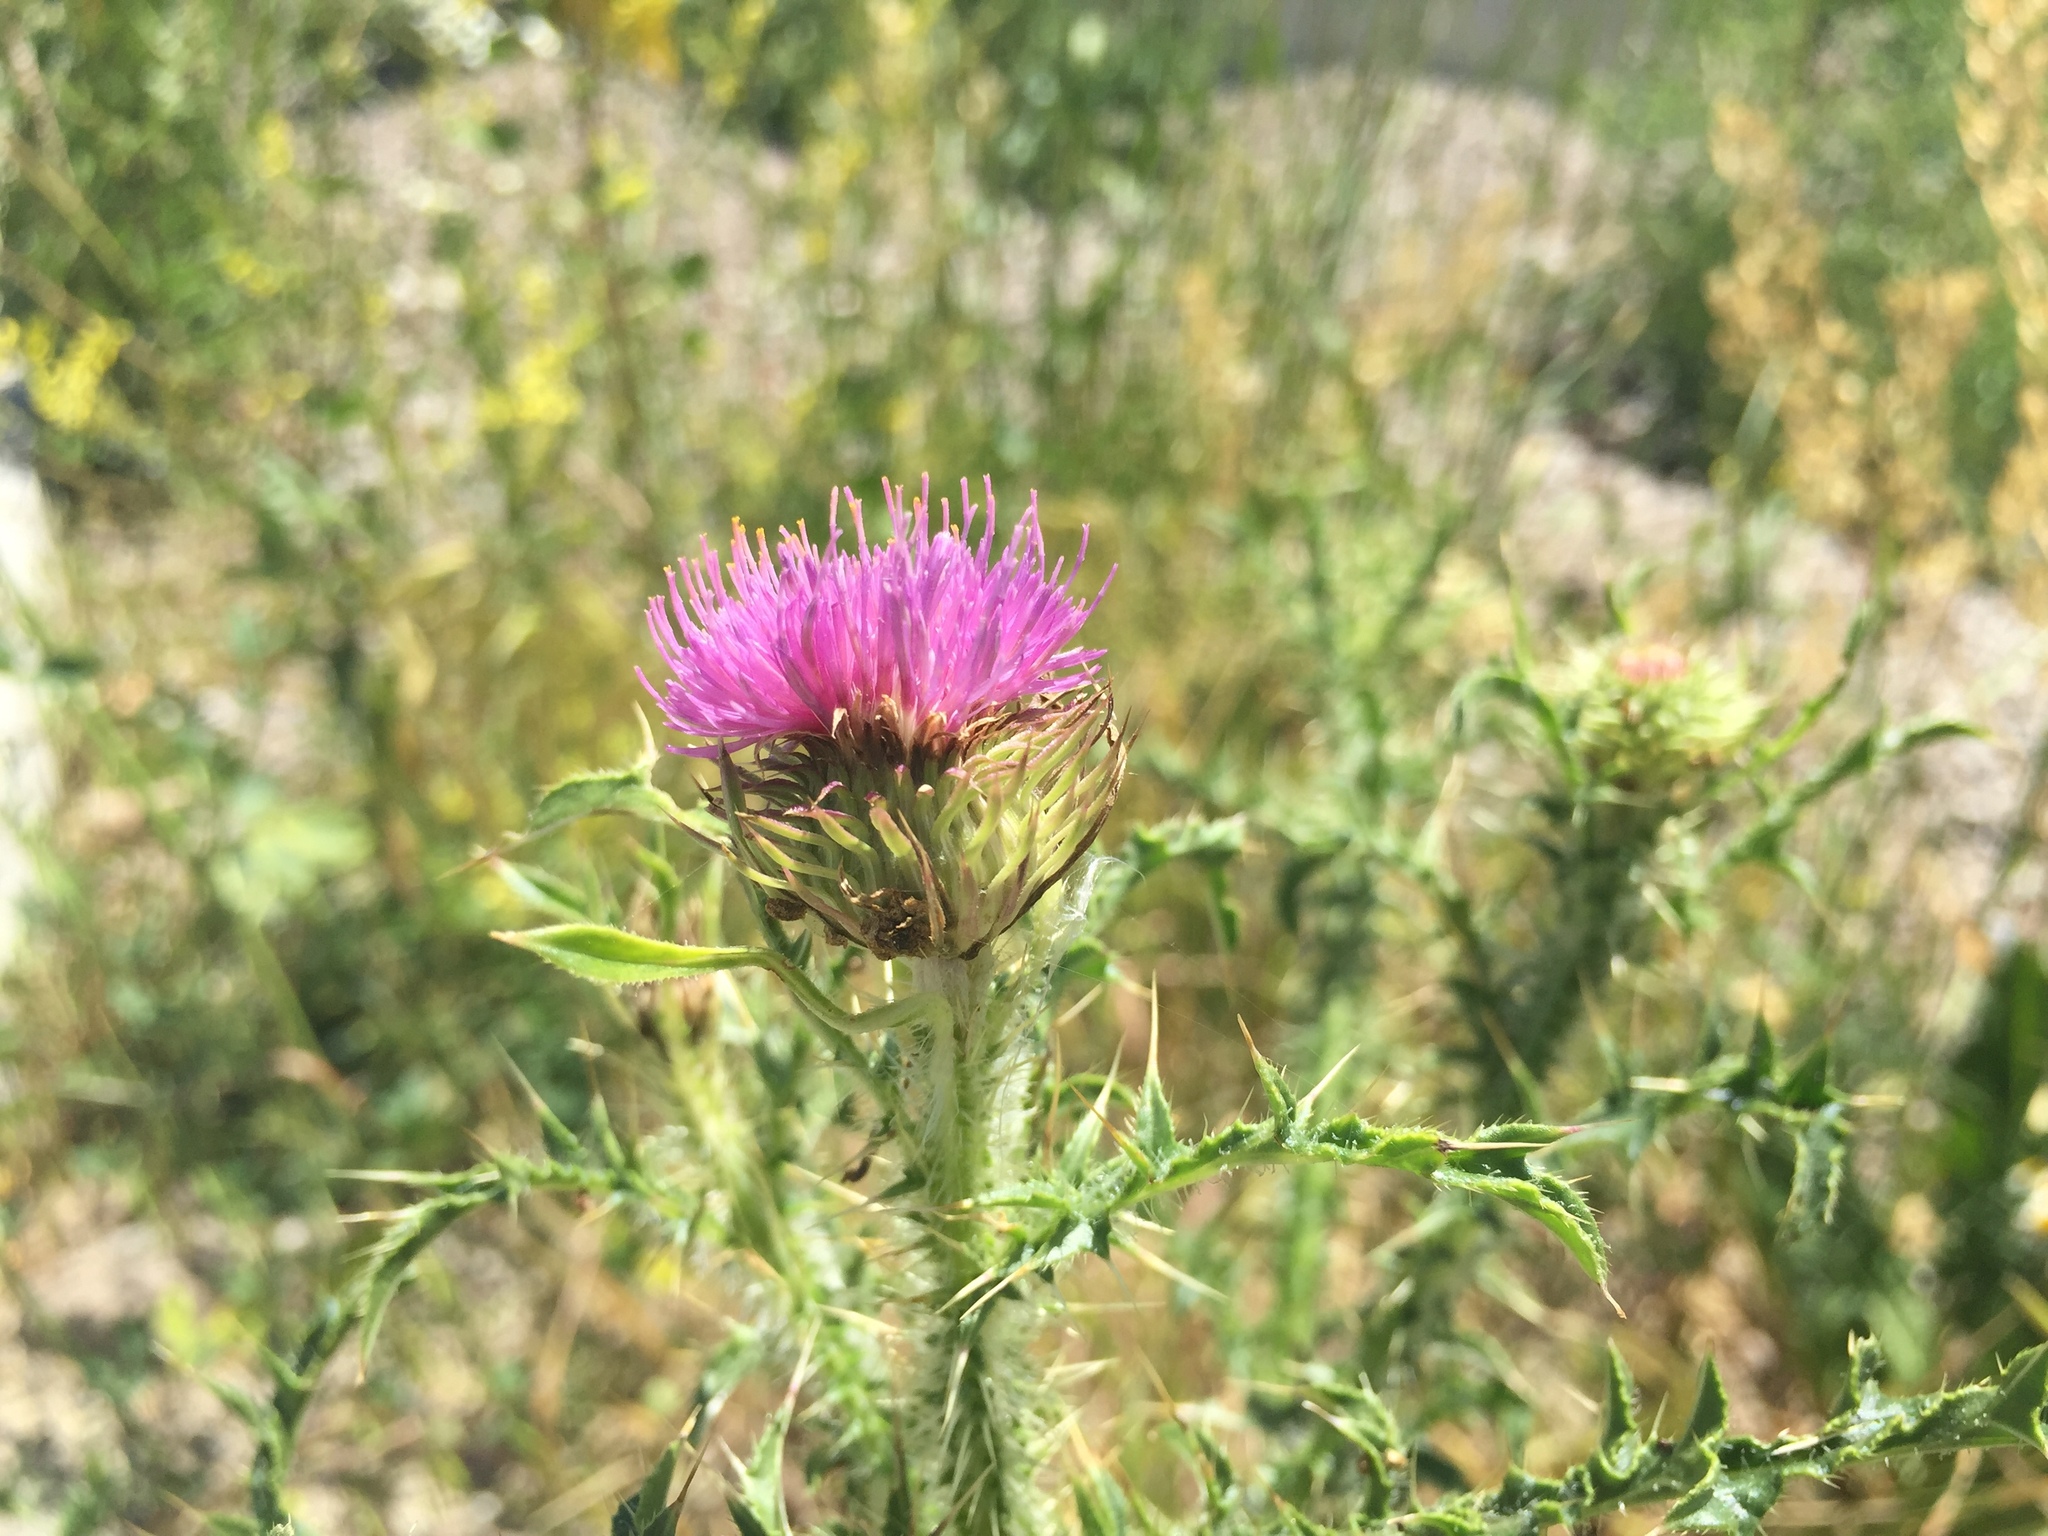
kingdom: Plantae
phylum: Tracheophyta
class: Magnoliopsida
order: Asterales
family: Asteraceae
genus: Carduus
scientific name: Carduus acanthoides
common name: Plumeless thistle
